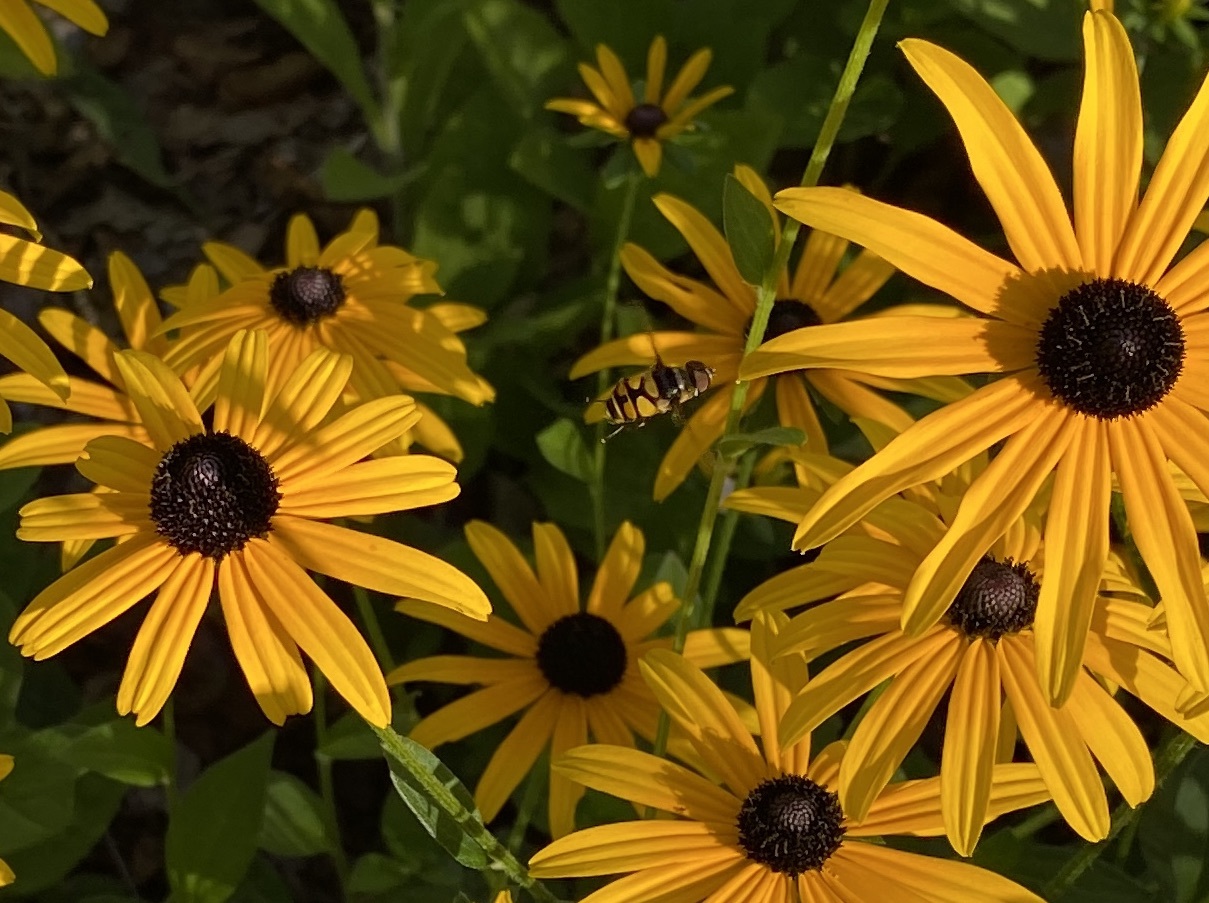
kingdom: Animalia
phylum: Arthropoda
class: Insecta
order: Diptera
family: Syrphidae
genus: Eristalis
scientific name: Eristalis transversa
